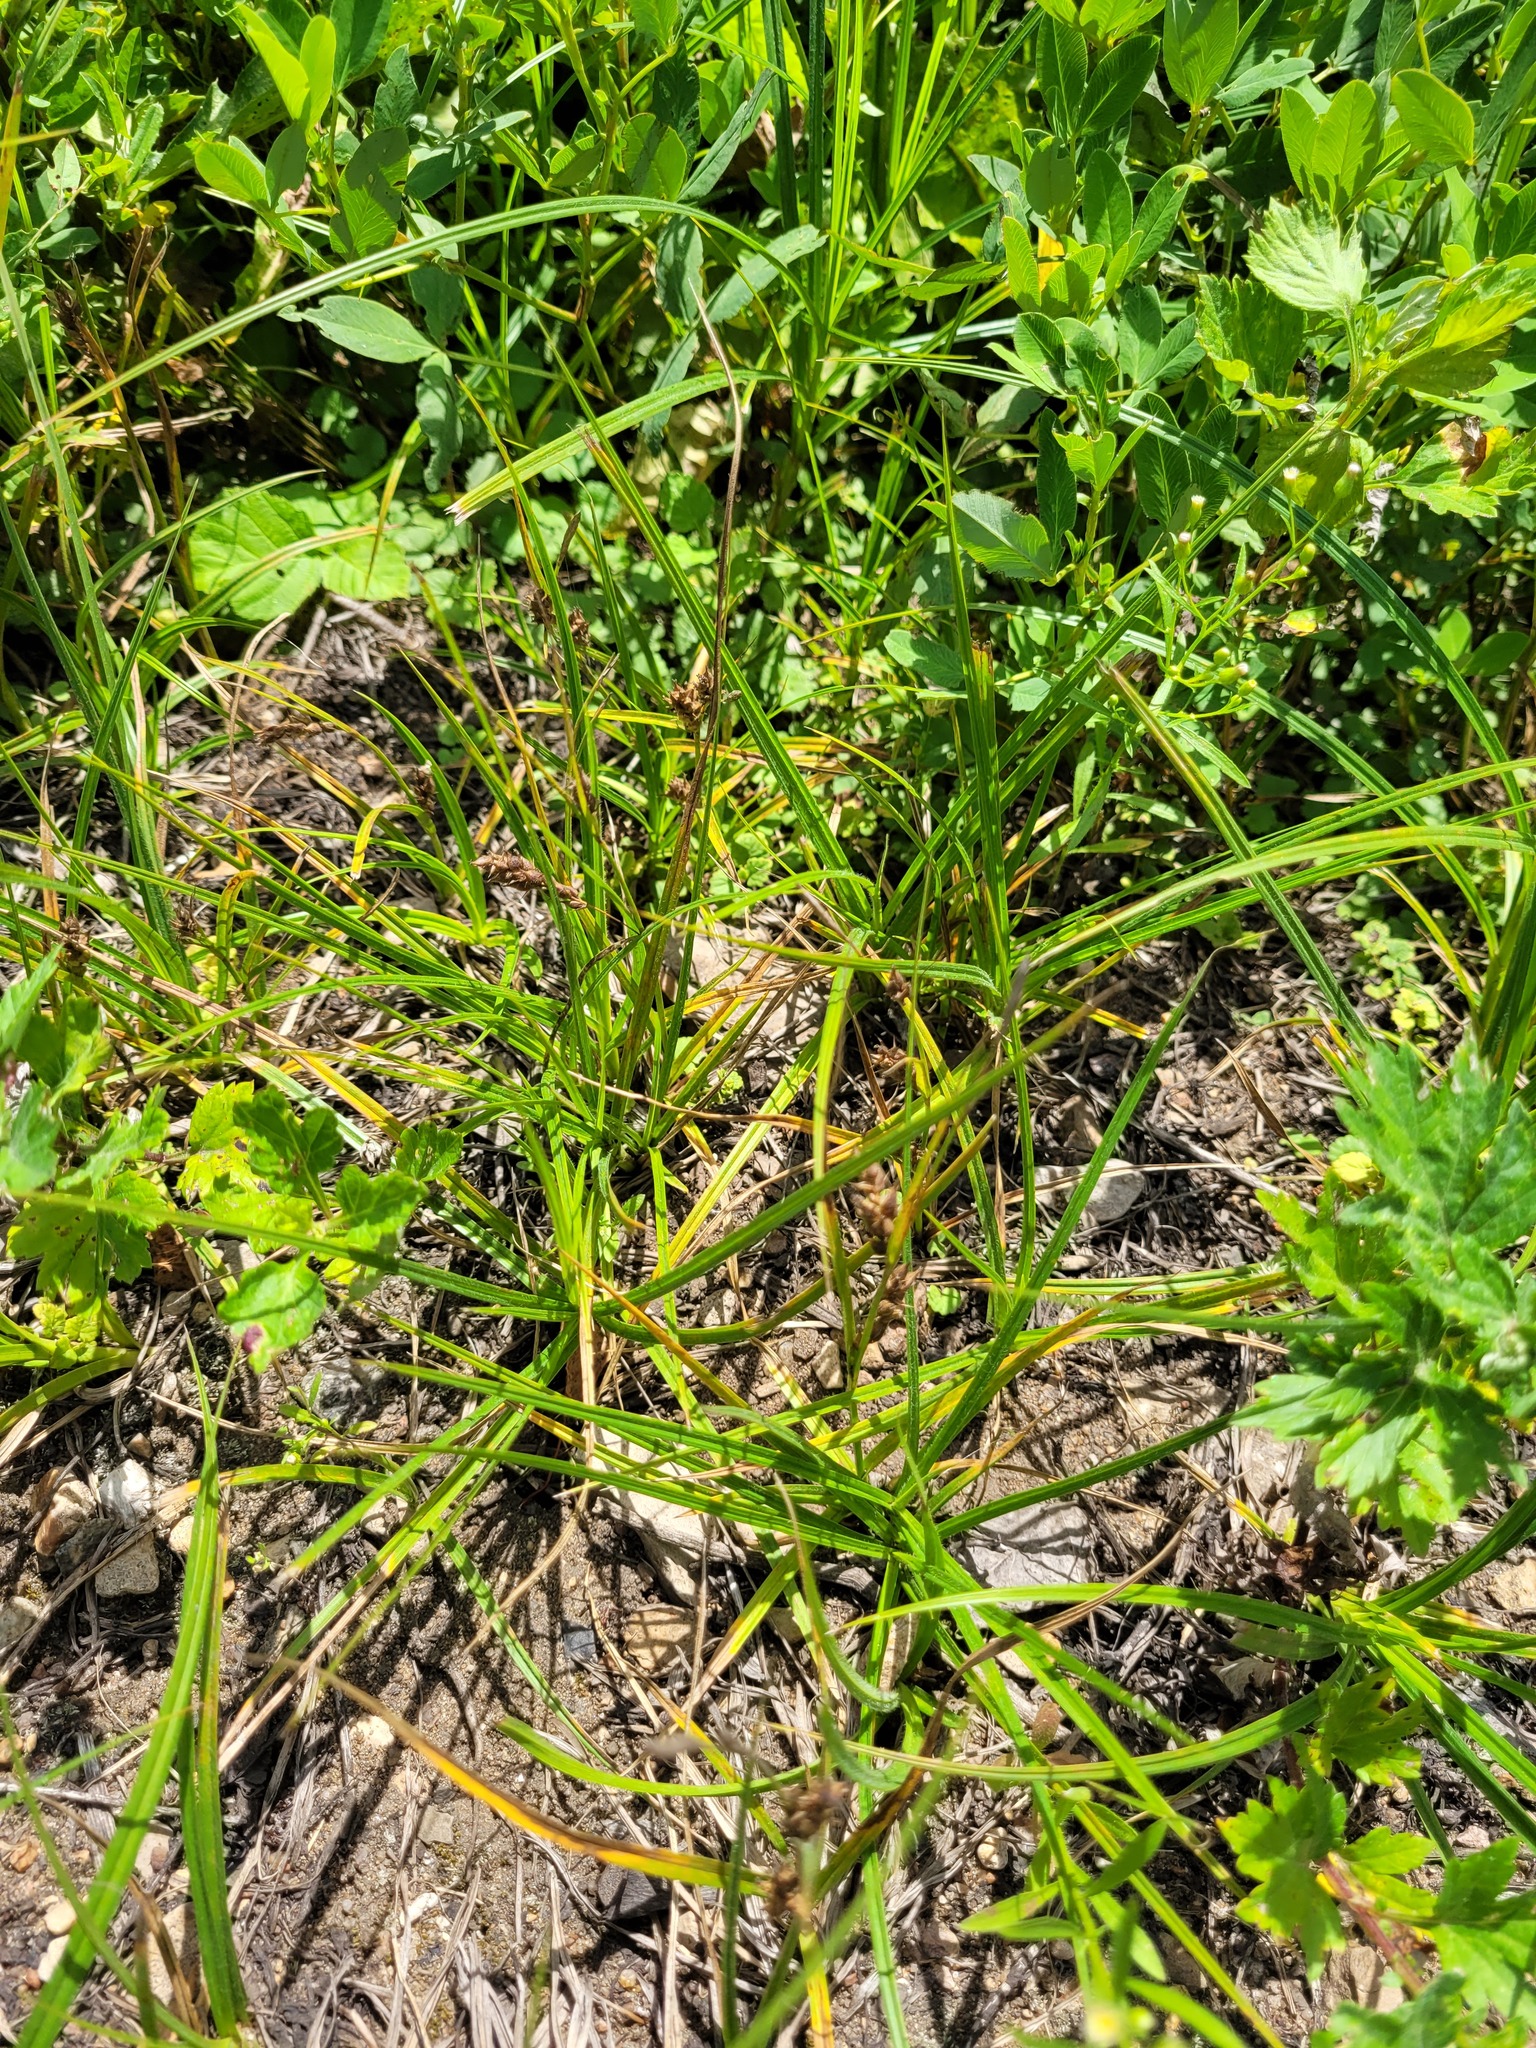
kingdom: Plantae
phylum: Tracheophyta
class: Liliopsida
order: Poales
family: Cyperaceae
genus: Carex
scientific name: Carex hirta
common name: Hairy sedge
